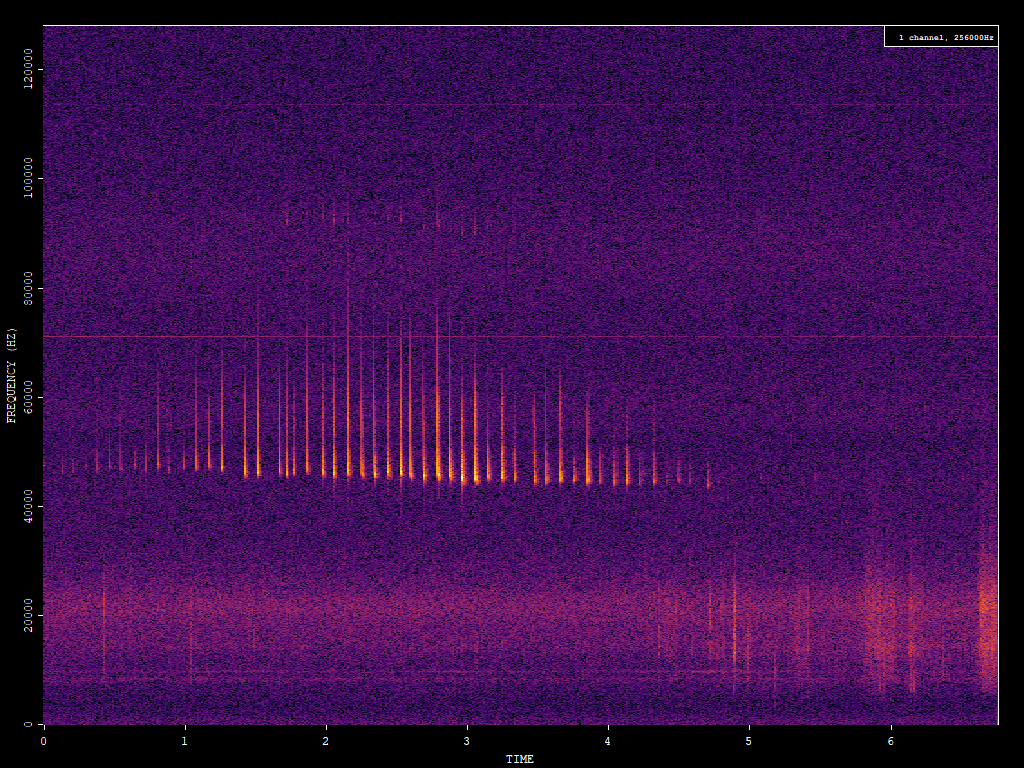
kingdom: Animalia
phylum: Chordata
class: Mammalia
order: Chiroptera
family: Vespertilionidae
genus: Pipistrellus
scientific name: Pipistrellus pipistrellus
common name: Common pipistrelle
